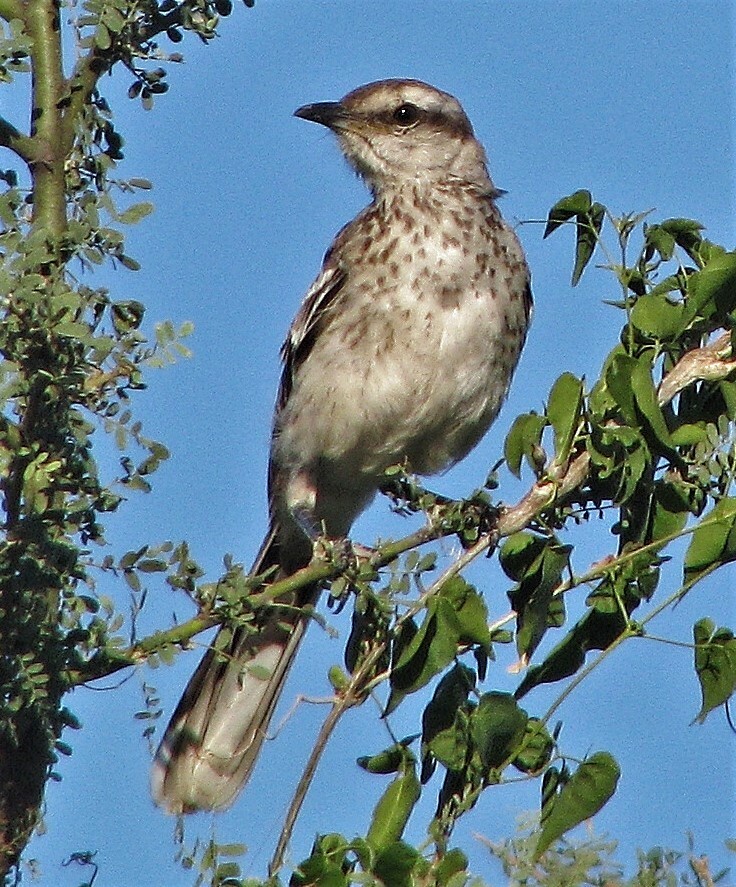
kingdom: Animalia
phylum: Chordata
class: Aves
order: Passeriformes
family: Mimidae
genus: Mimus
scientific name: Mimus saturninus
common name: Chalk-browed mockingbird
